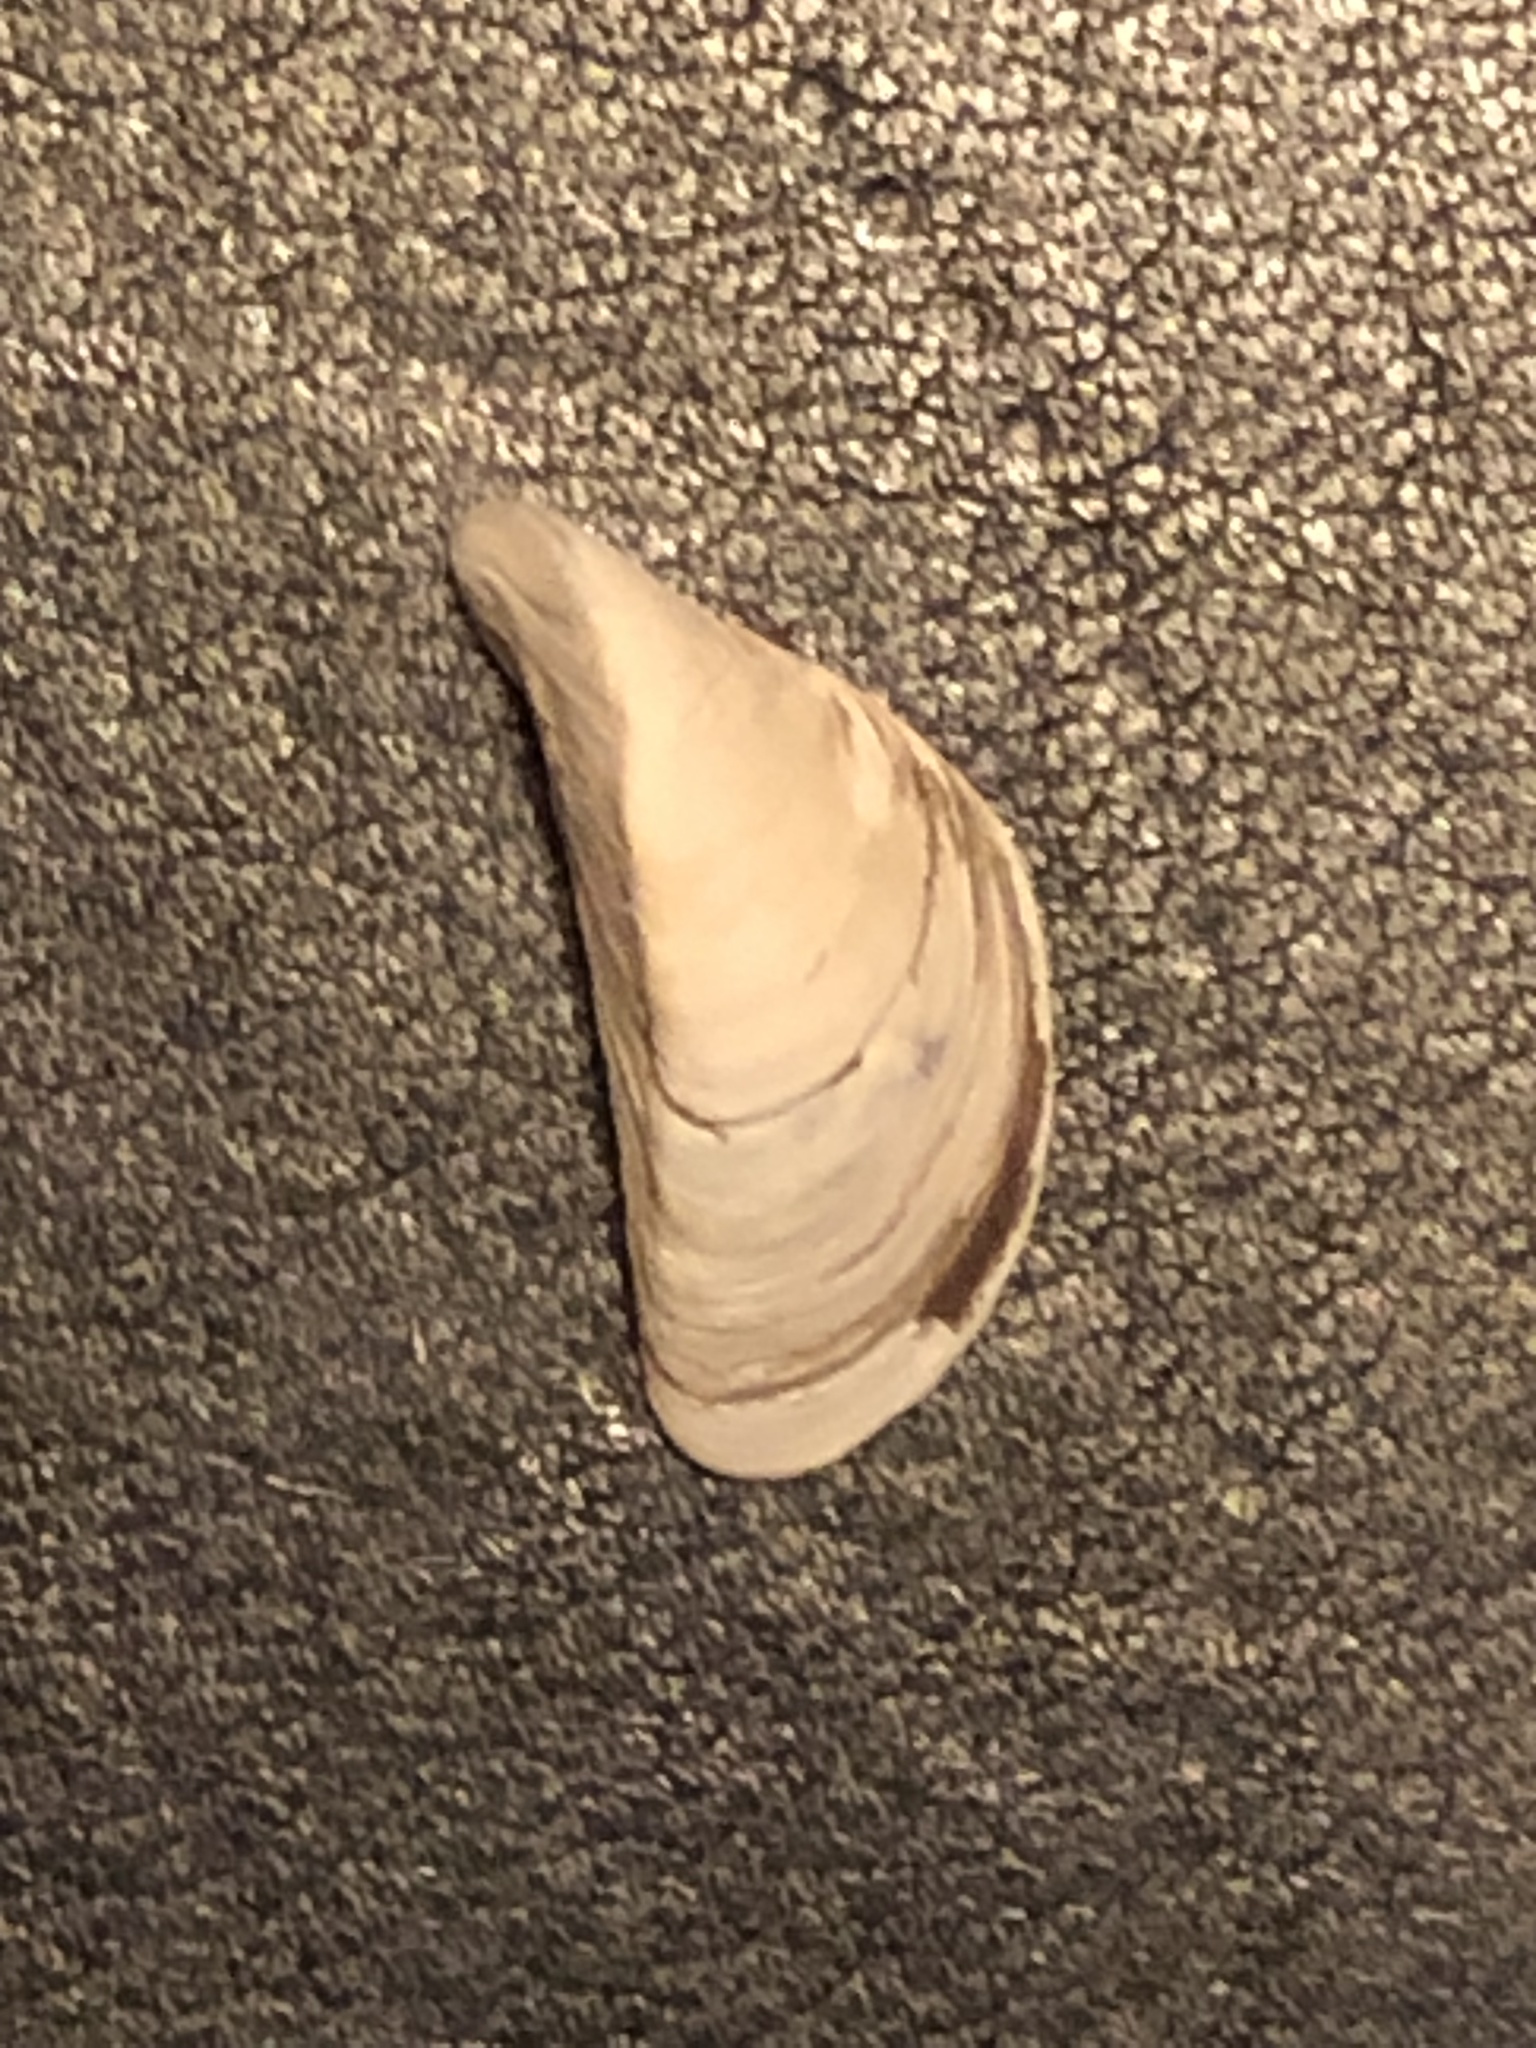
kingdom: Animalia
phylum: Mollusca
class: Bivalvia
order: Myida
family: Dreissenidae
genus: Dreissena
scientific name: Dreissena polymorpha
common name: Zebra mussel
